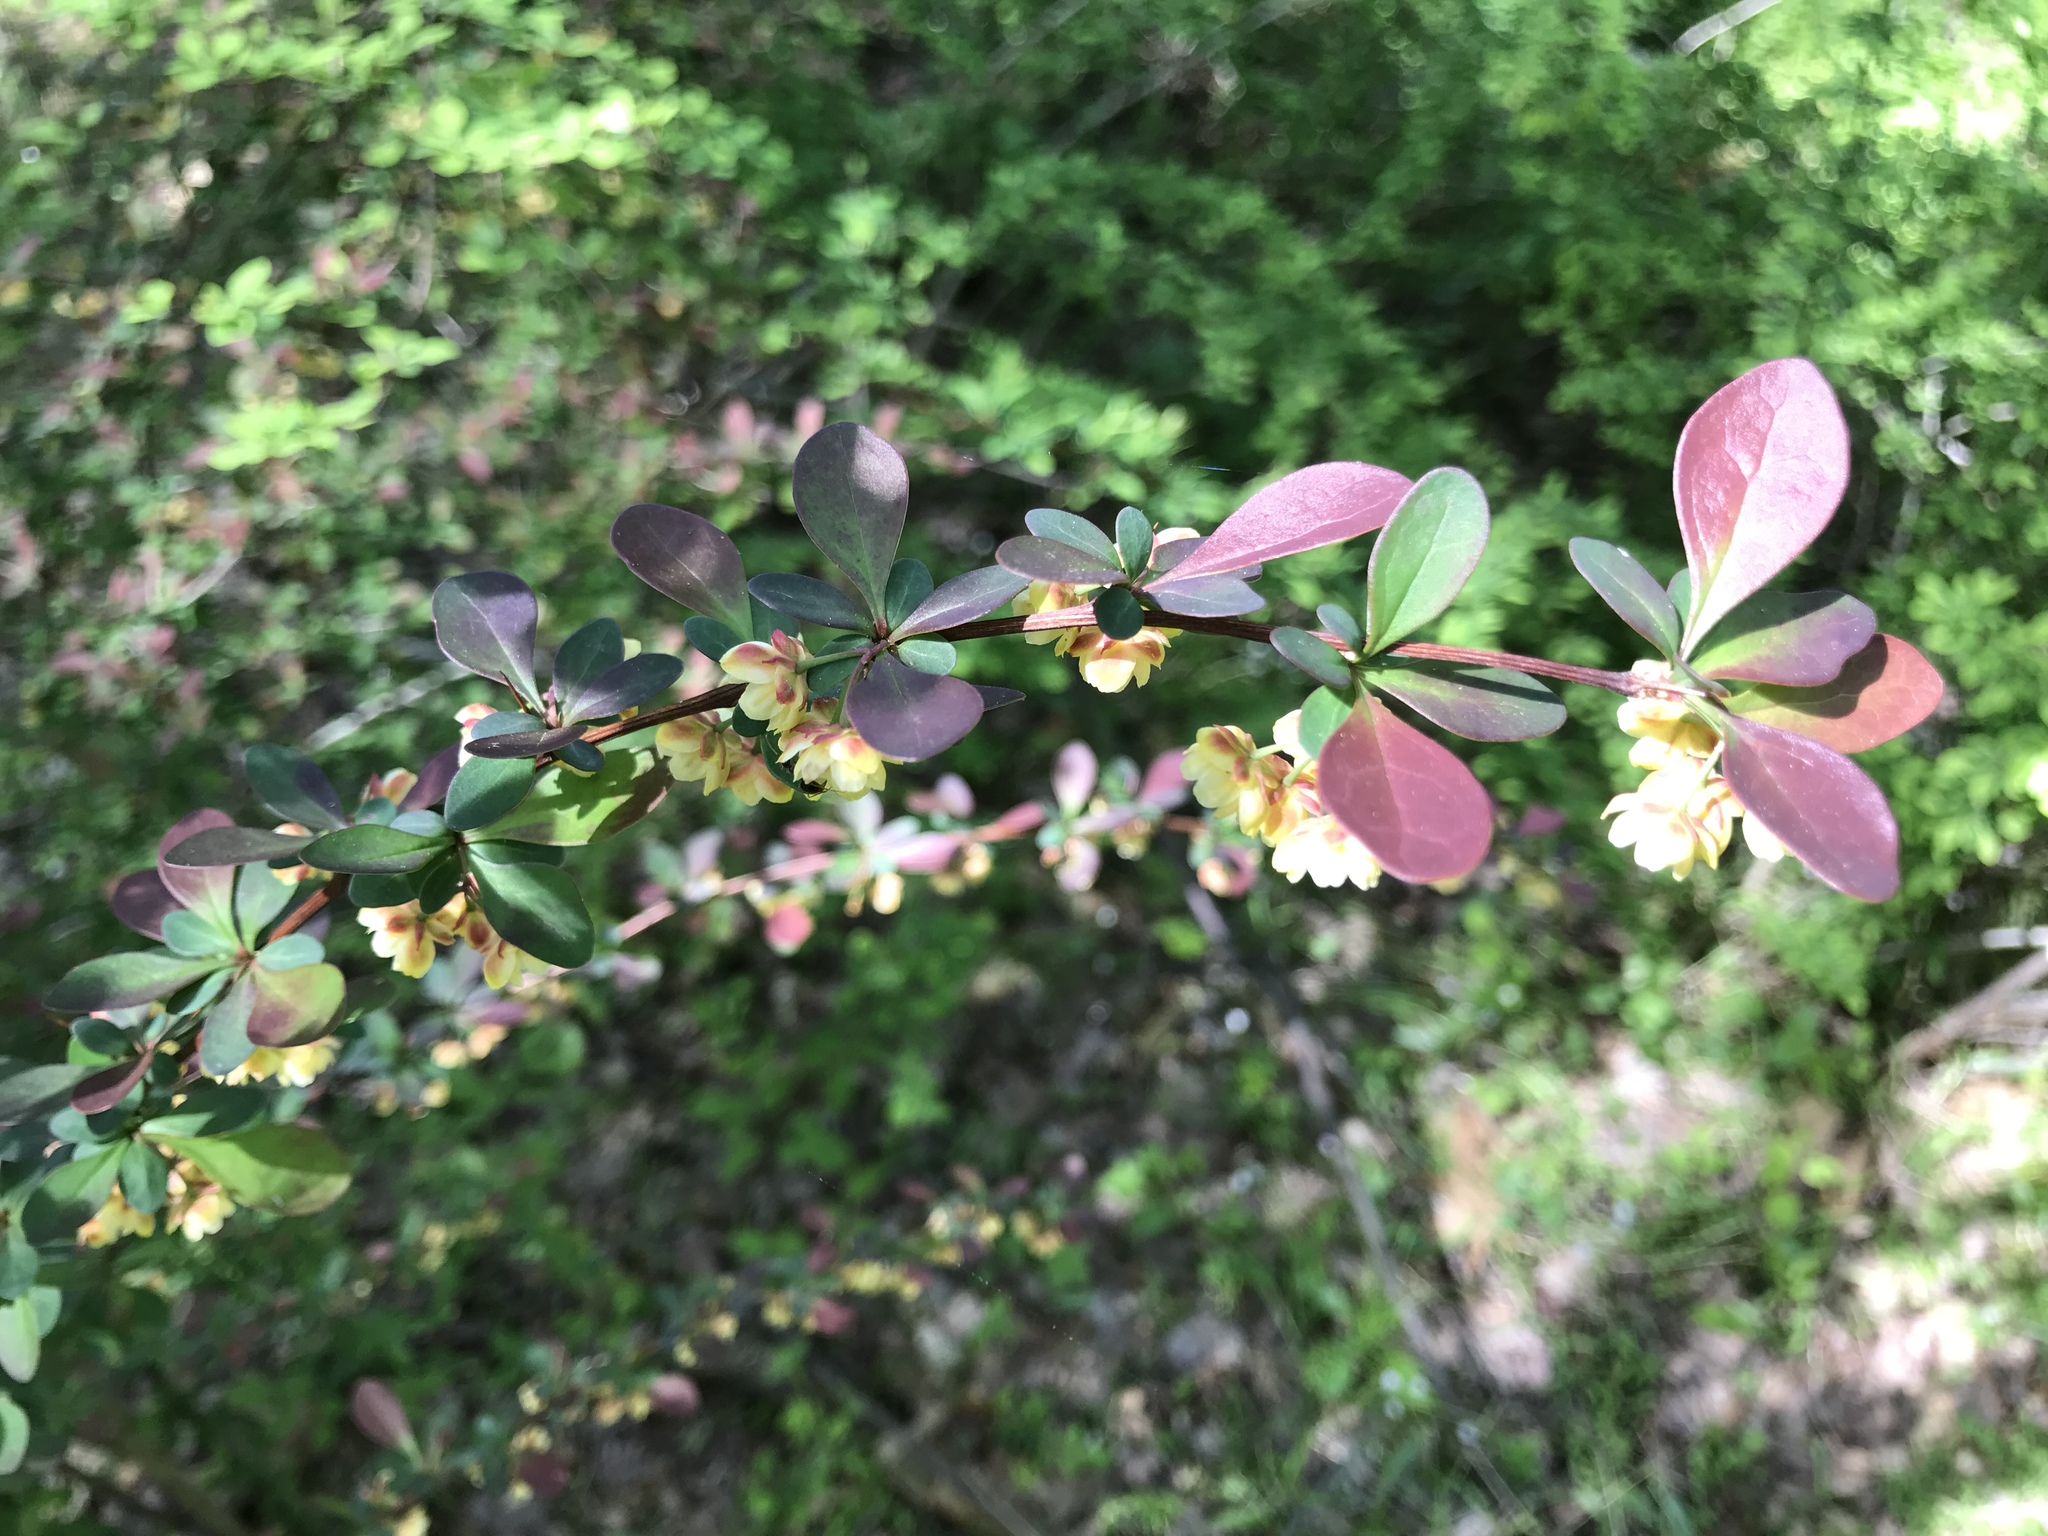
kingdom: Plantae
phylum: Tracheophyta
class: Magnoliopsida
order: Ranunculales
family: Berberidaceae
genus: Berberis
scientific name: Berberis thunbergii
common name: Japanese barberry
